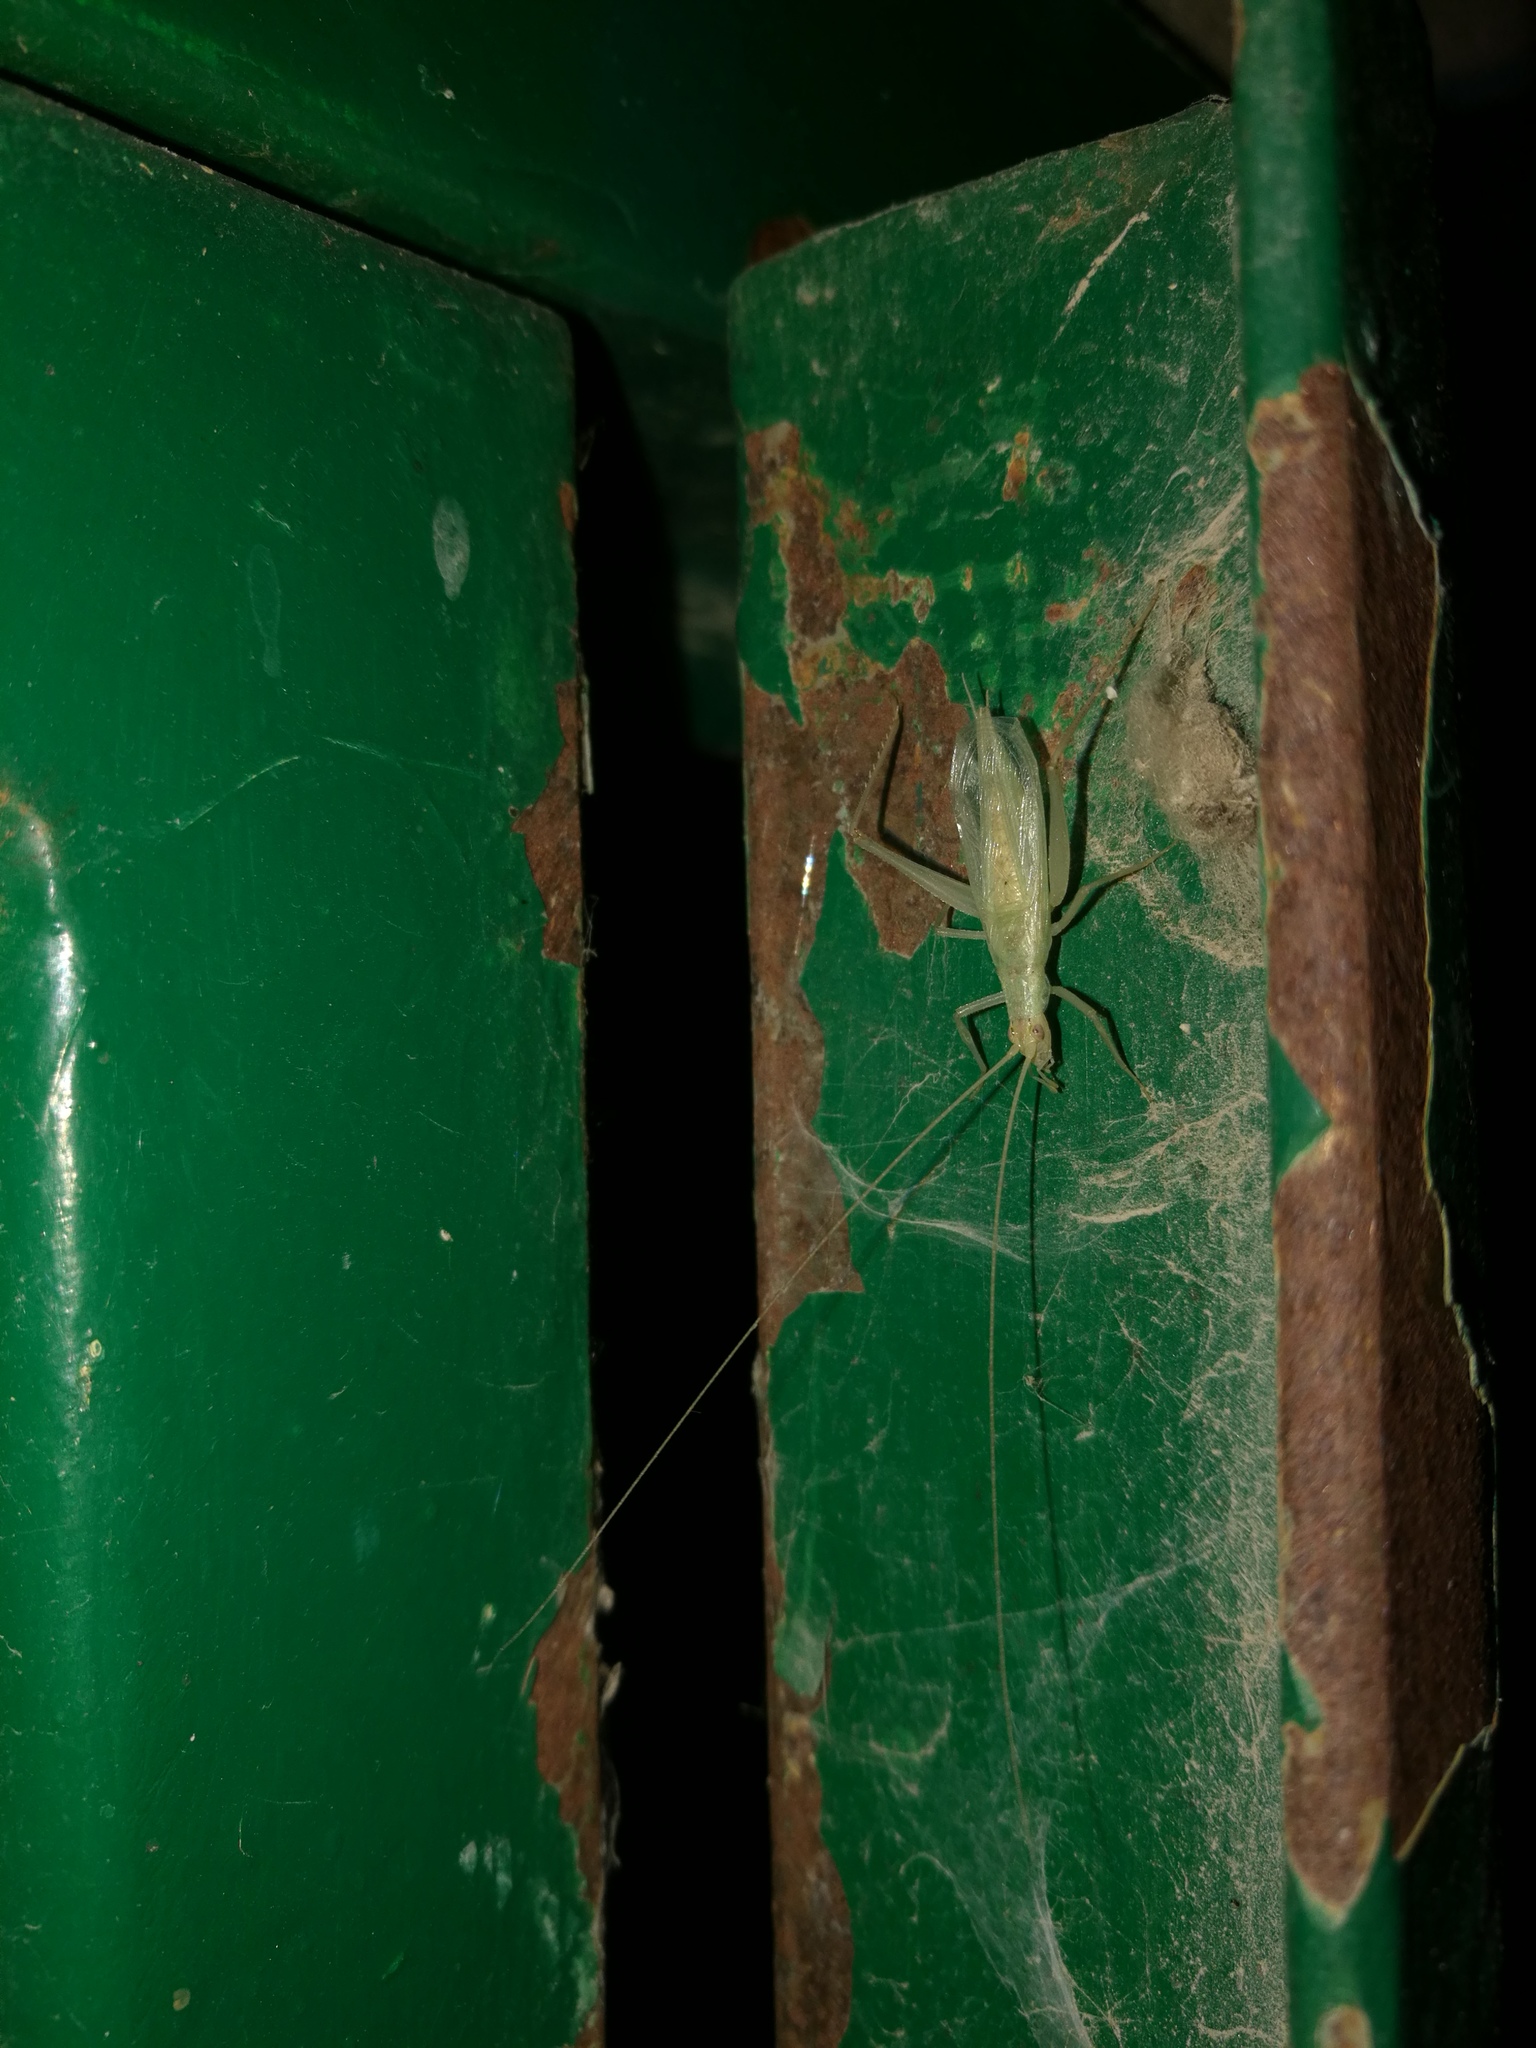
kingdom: Animalia
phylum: Arthropoda
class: Insecta
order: Orthoptera
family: Gryllidae
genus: Oecanthus
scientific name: Oecanthus pellucens
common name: Tree-cricket
